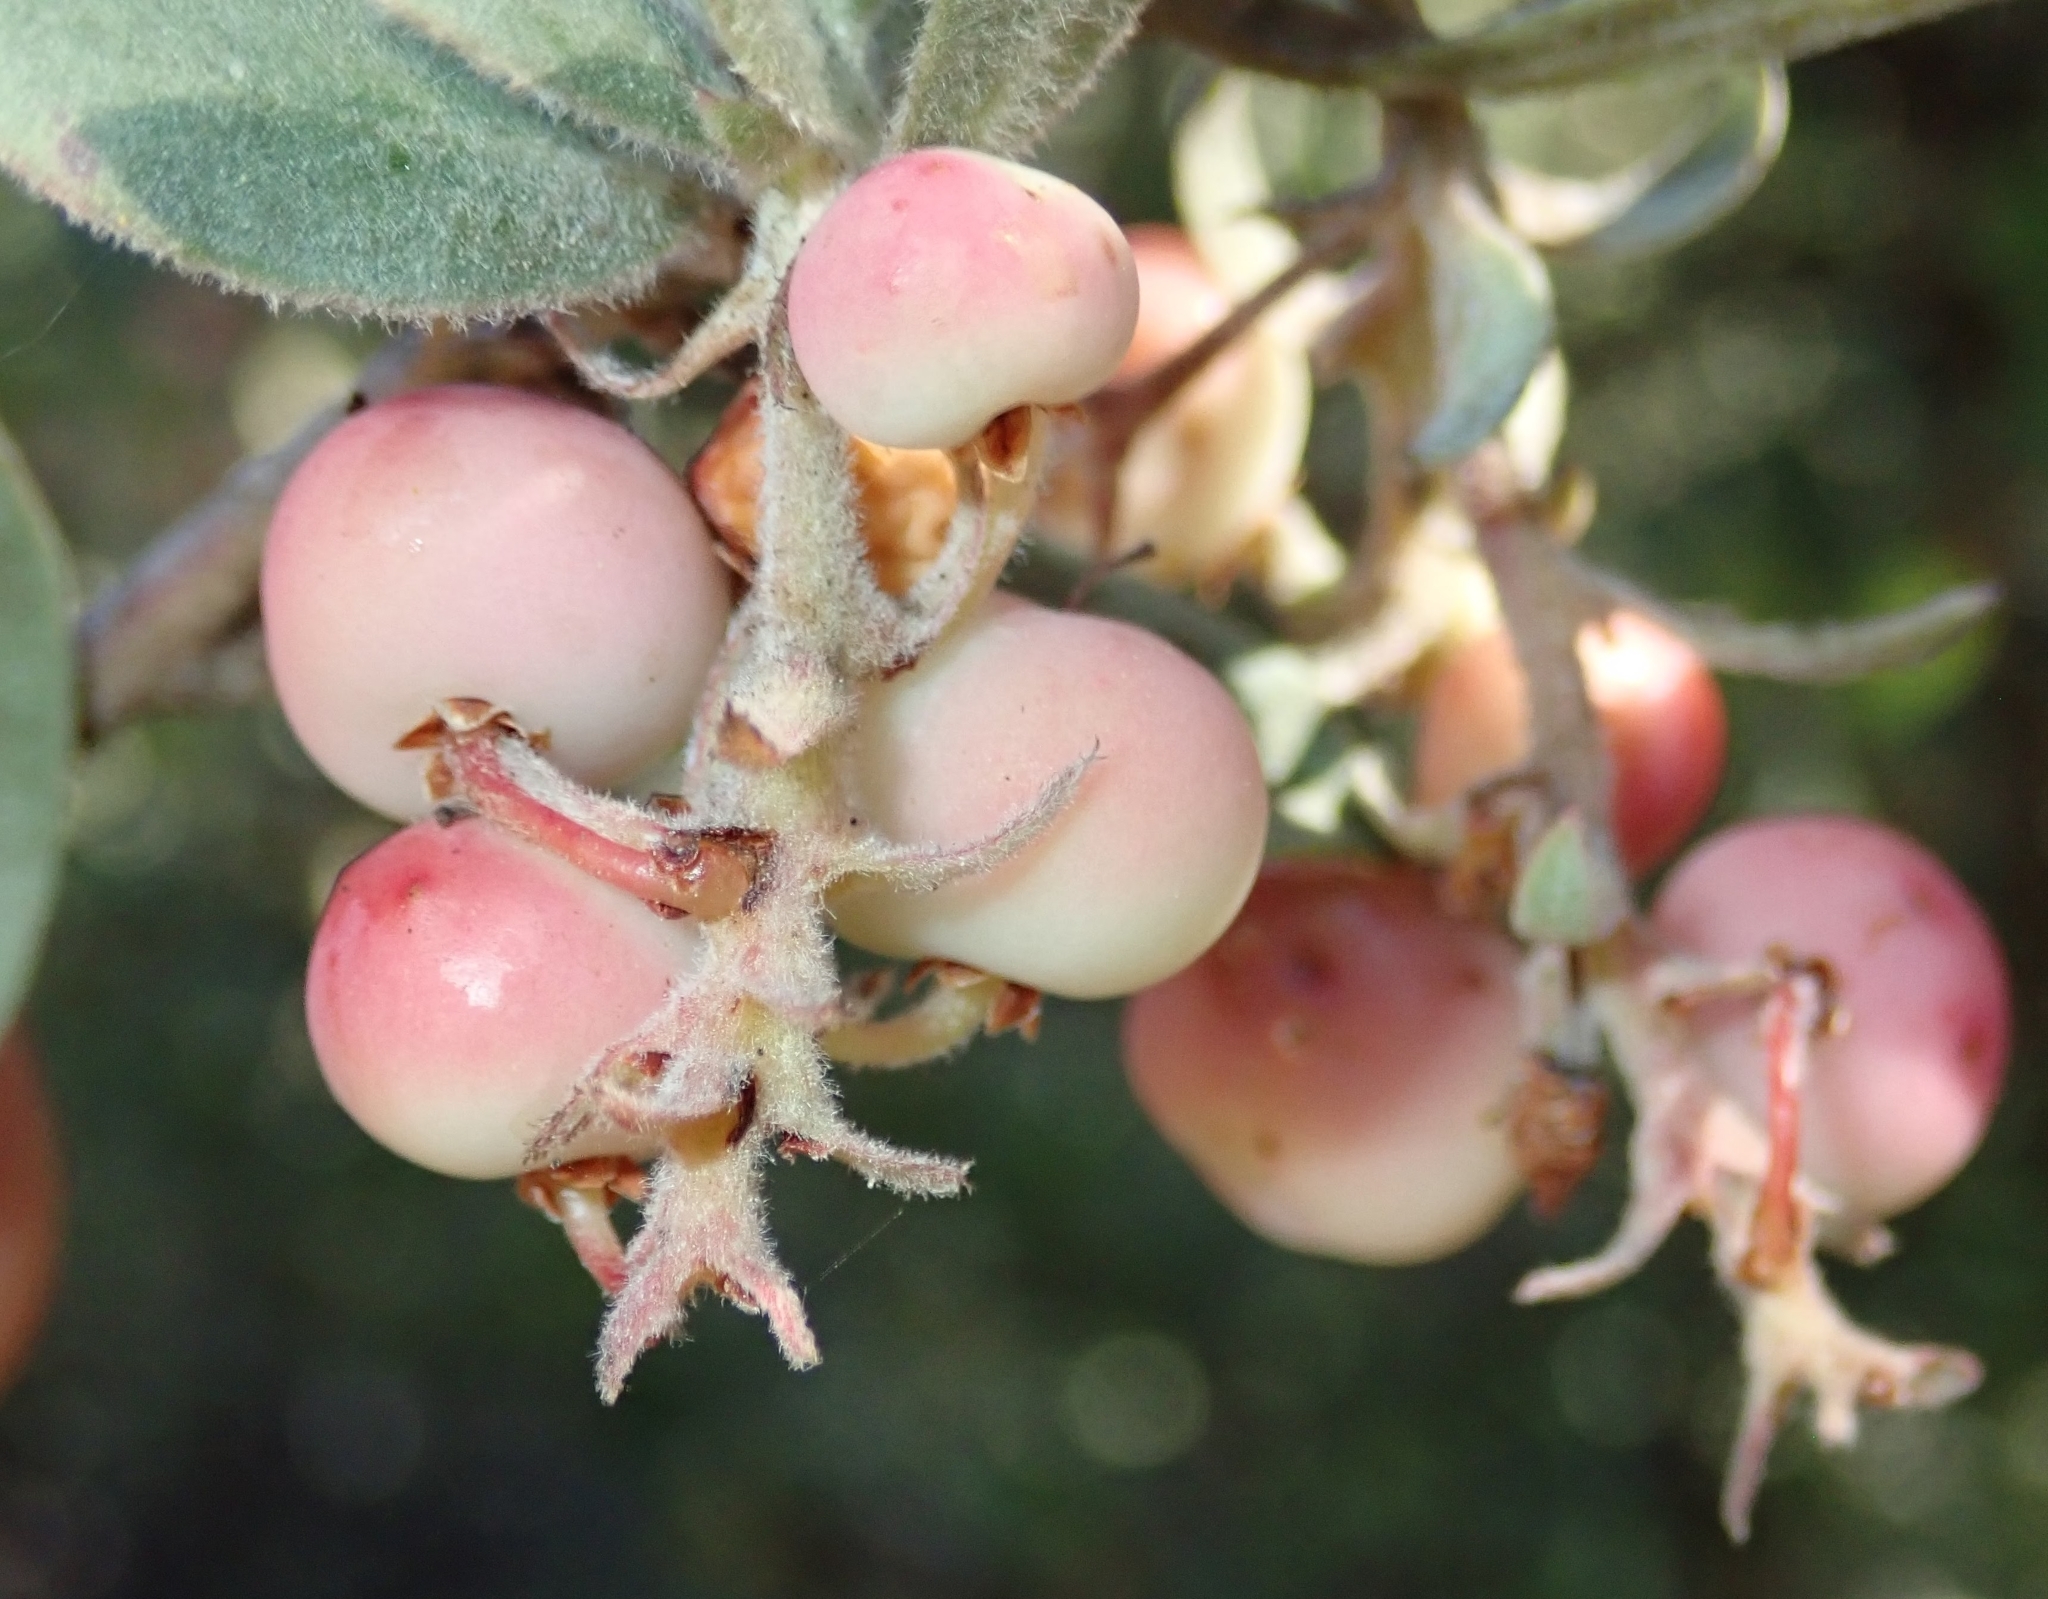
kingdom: Plantae
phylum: Tracheophyta
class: Magnoliopsida
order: Ericales
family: Ericaceae
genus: Arctostaphylos
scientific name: Arctostaphylos silvicola
